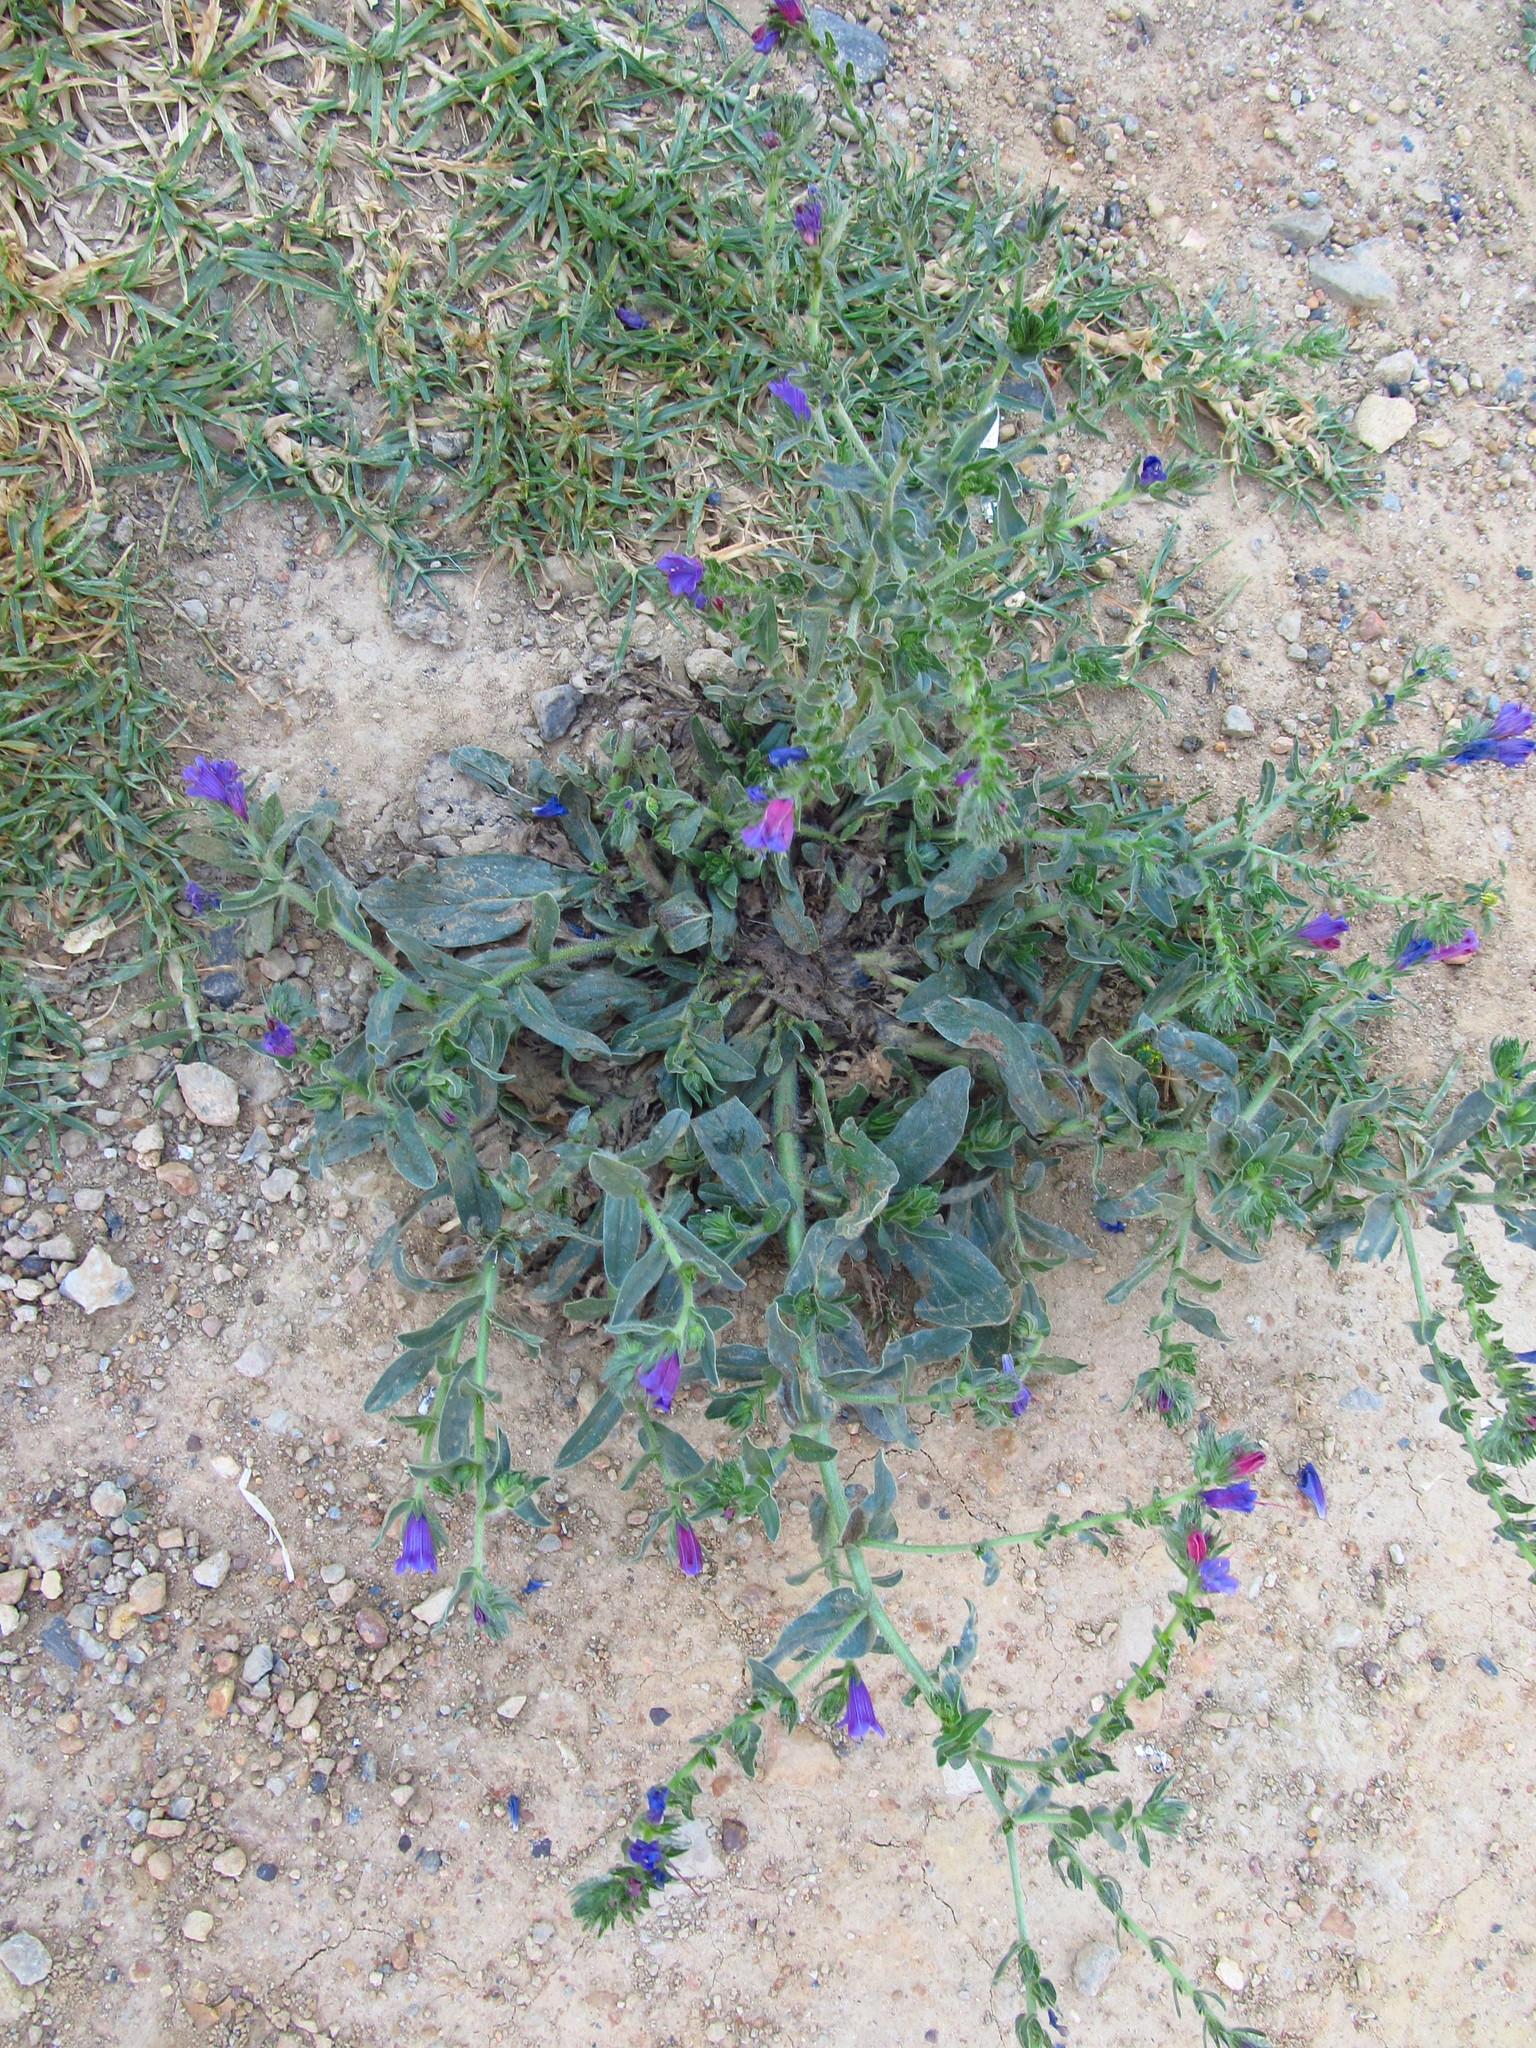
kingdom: Plantae
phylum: Tracheophyta
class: Magnoliopsida
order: Boraginales
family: Boraginaceae
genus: Echium
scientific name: Echium plantagineum
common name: Purple viper's-bugloss
